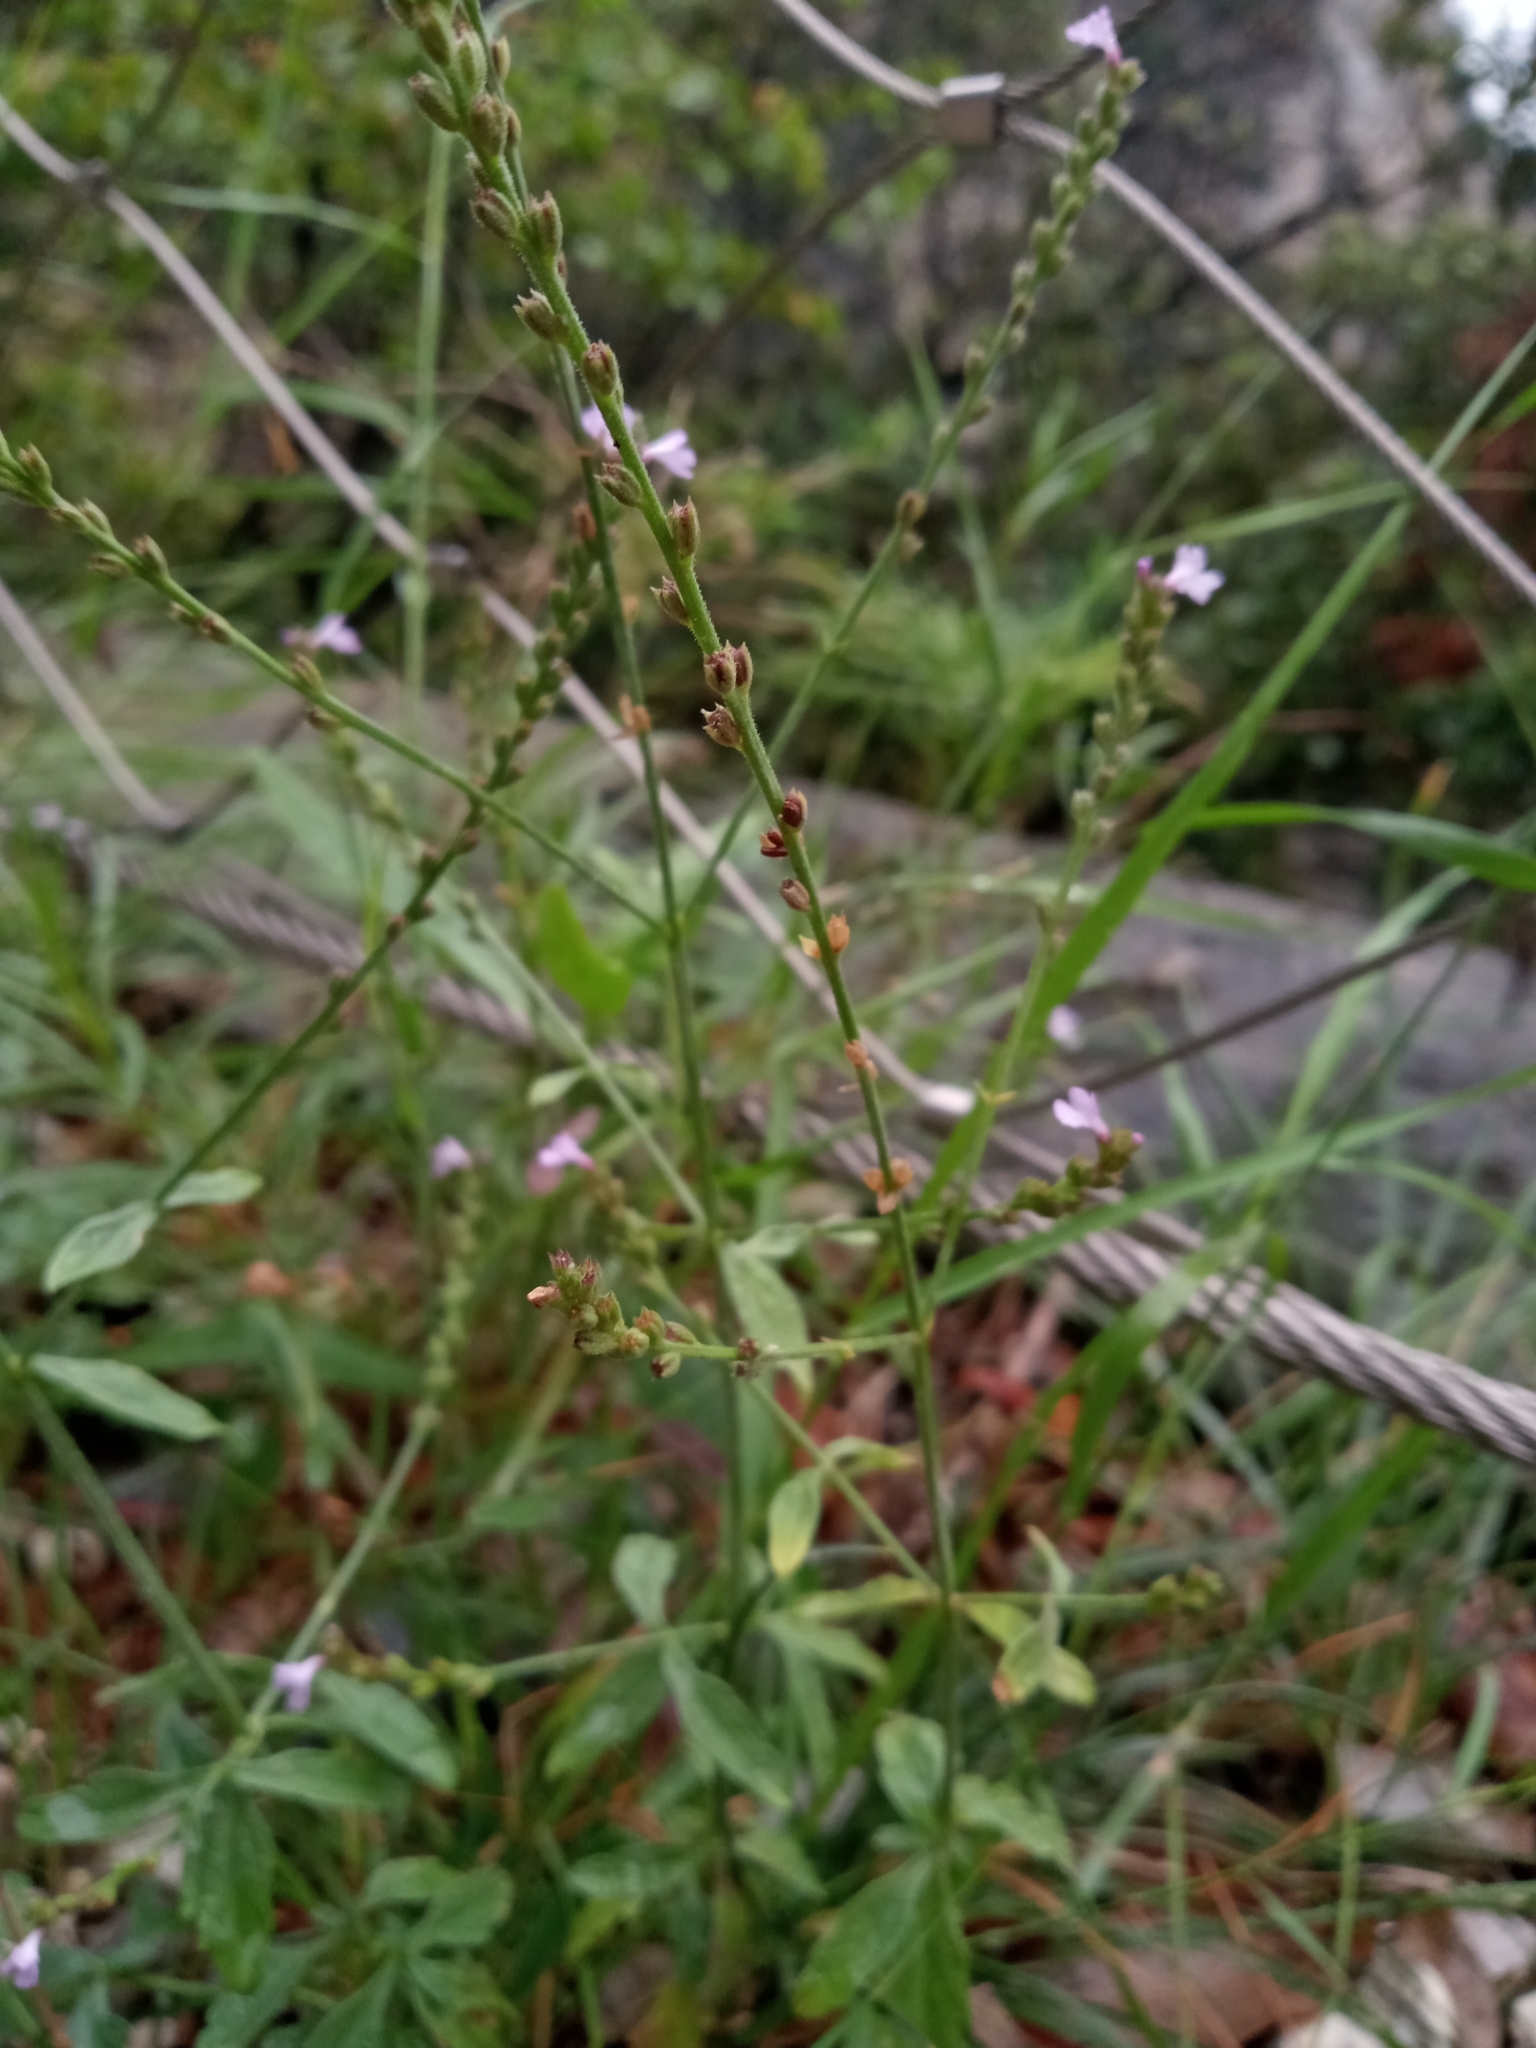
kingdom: Plantae
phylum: Tracheophyta
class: Magnoliopsida
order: Lamiales
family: Verbenaceae
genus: Verbena
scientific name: Verbena officinalis
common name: Vervain
